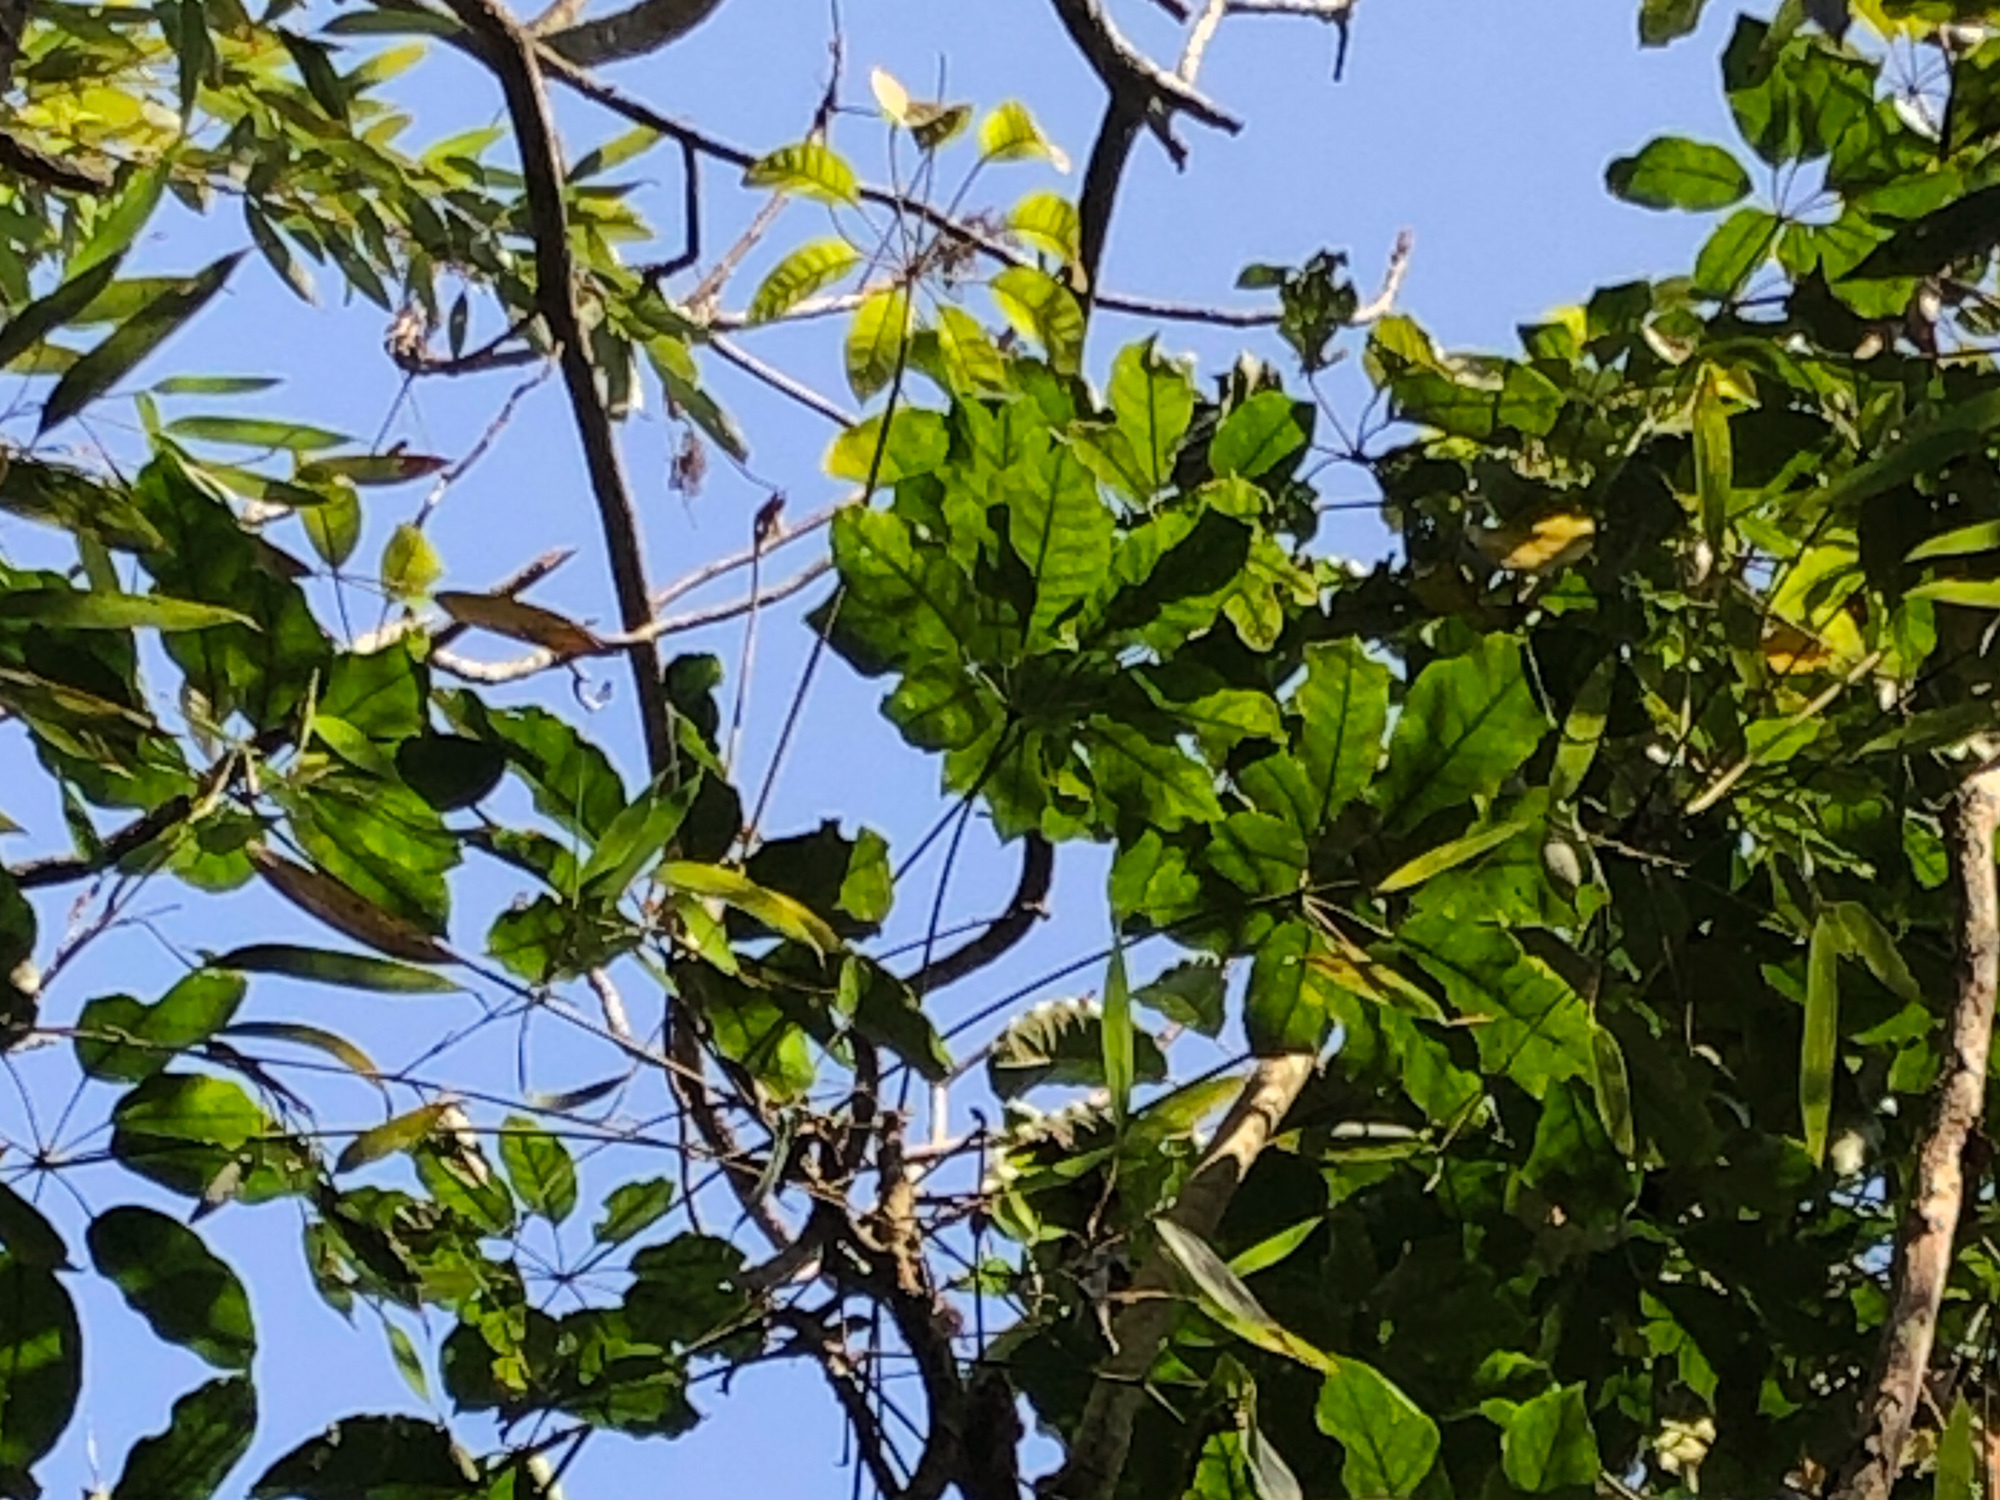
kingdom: Plantae
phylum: Tracheophyta
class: Magnoliopsida
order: Apiales
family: Araliaceae
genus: Heptapleurum
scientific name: Heptapleurum heptaphyllum
